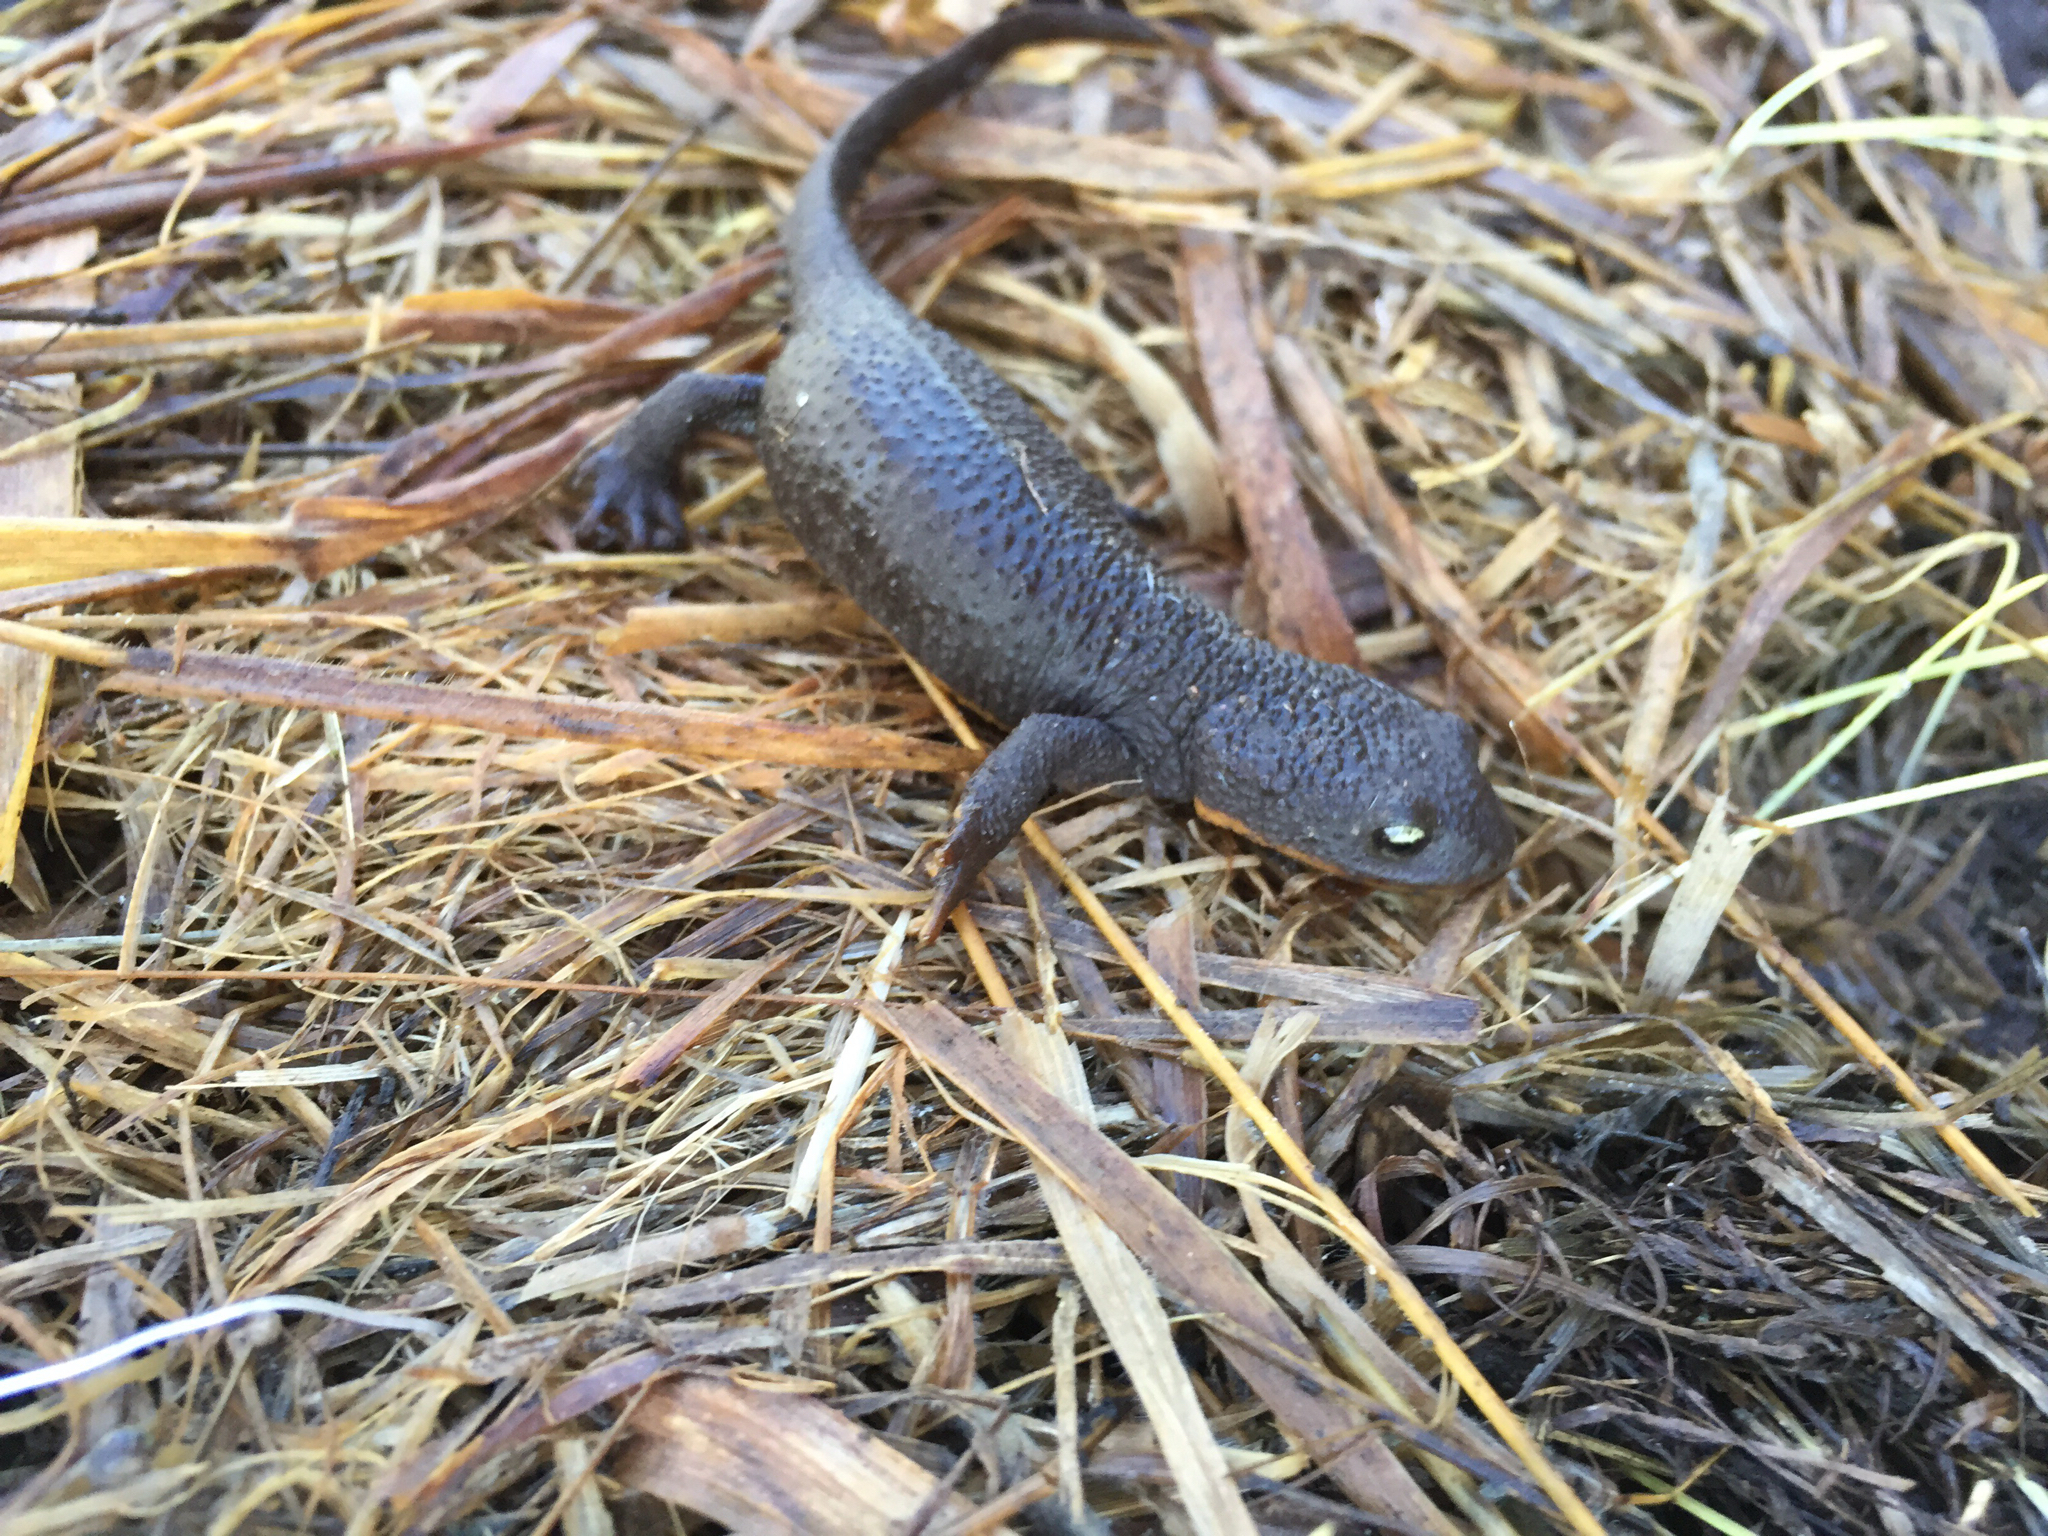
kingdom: Animalia
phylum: Chordata
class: Amphibia
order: Caudata
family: Salamandridae
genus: Taricha
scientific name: Taricha granulosa
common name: Roughskin newt
